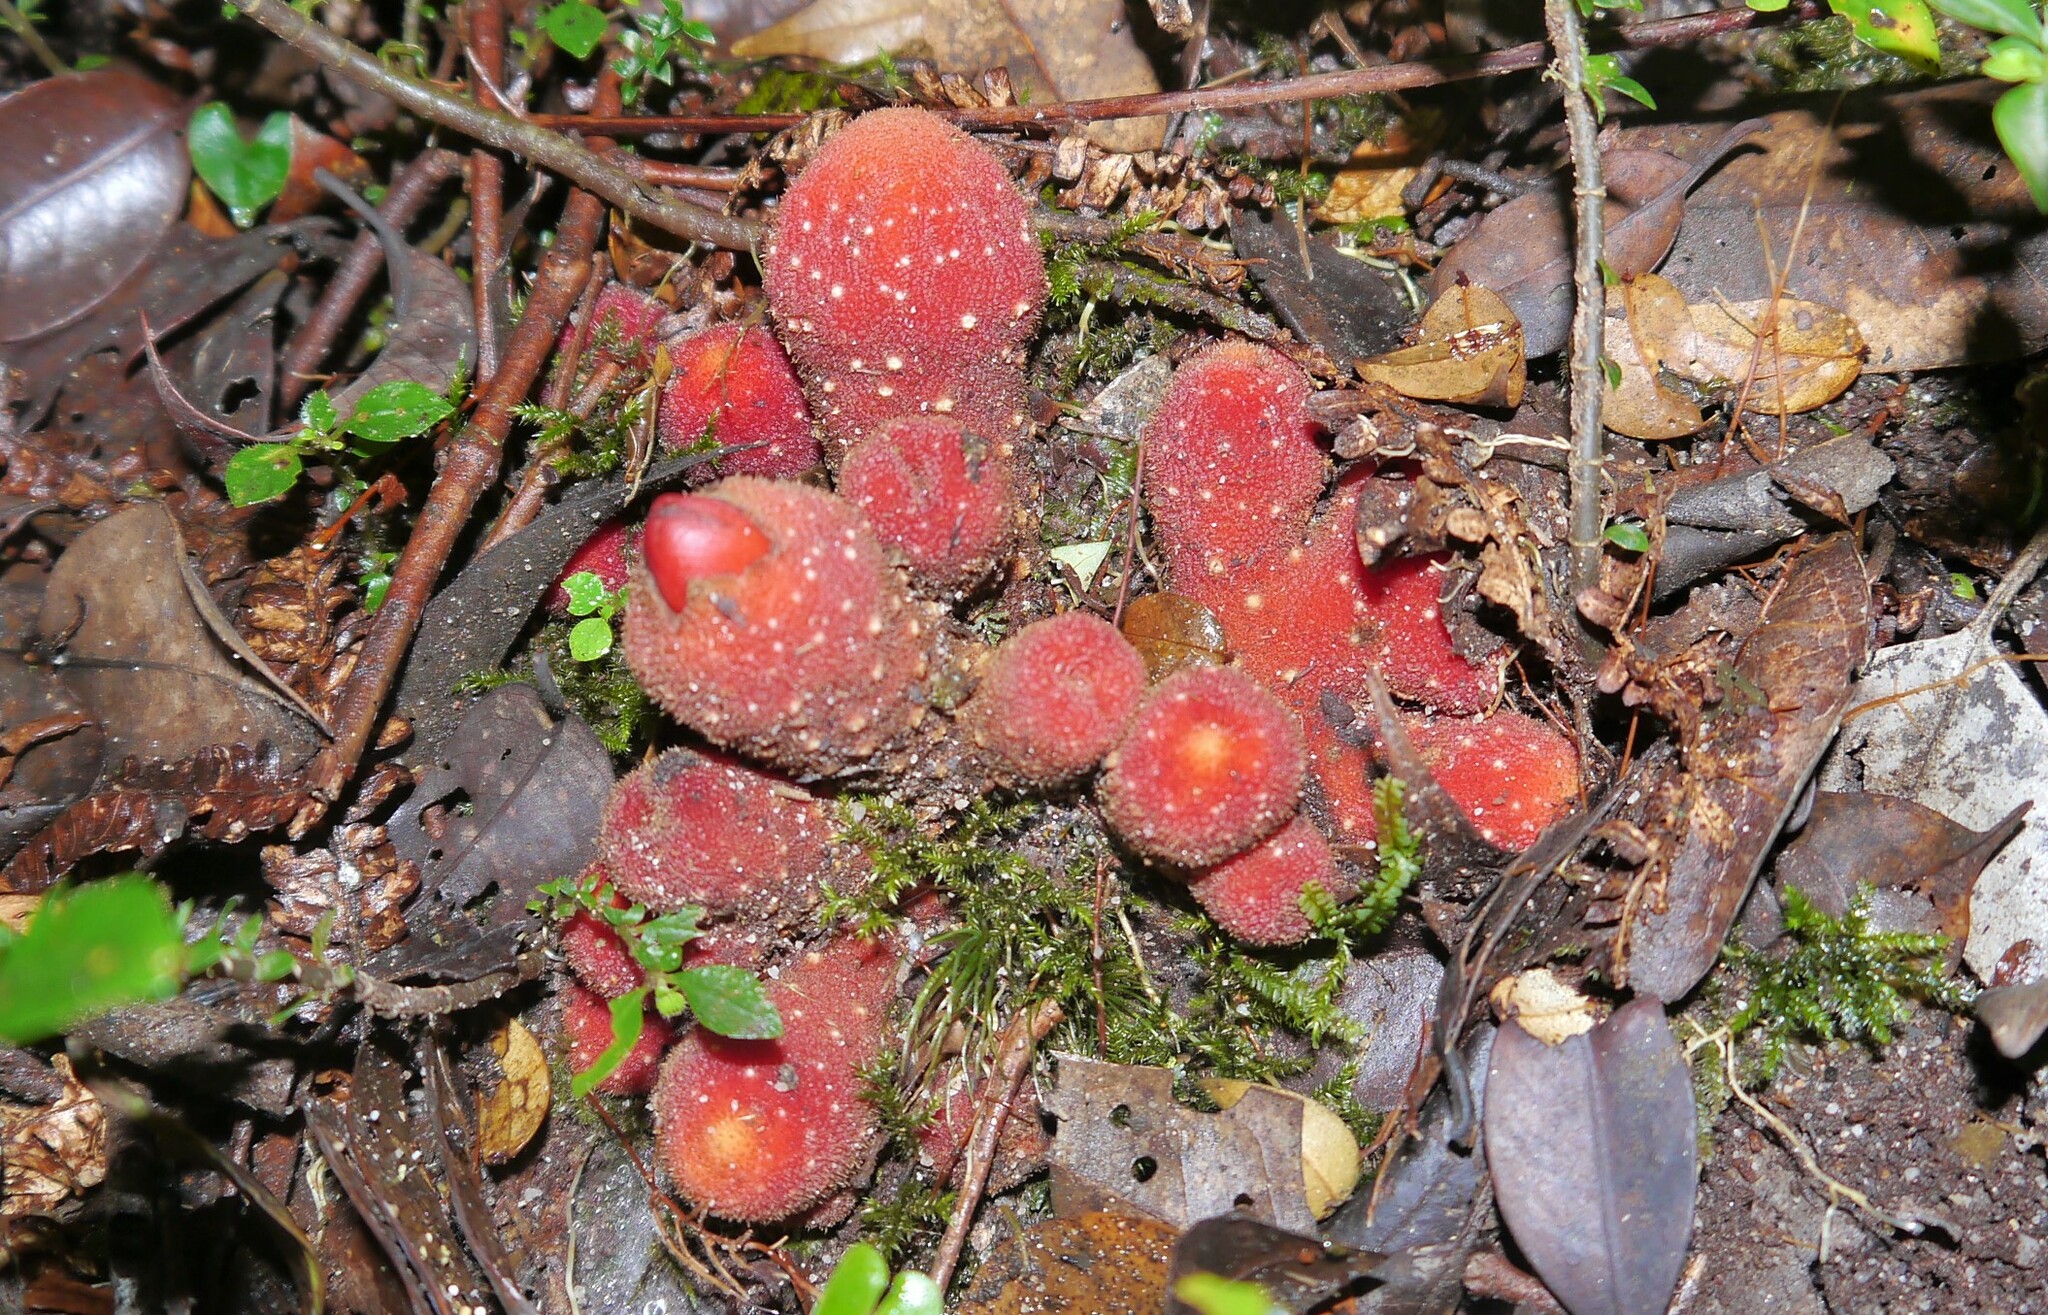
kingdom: Plantae
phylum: Tracheophyta
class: Magnoliopsida
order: Santalales
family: Balanophoraceae
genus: Balanophora
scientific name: Balanophora papuana
